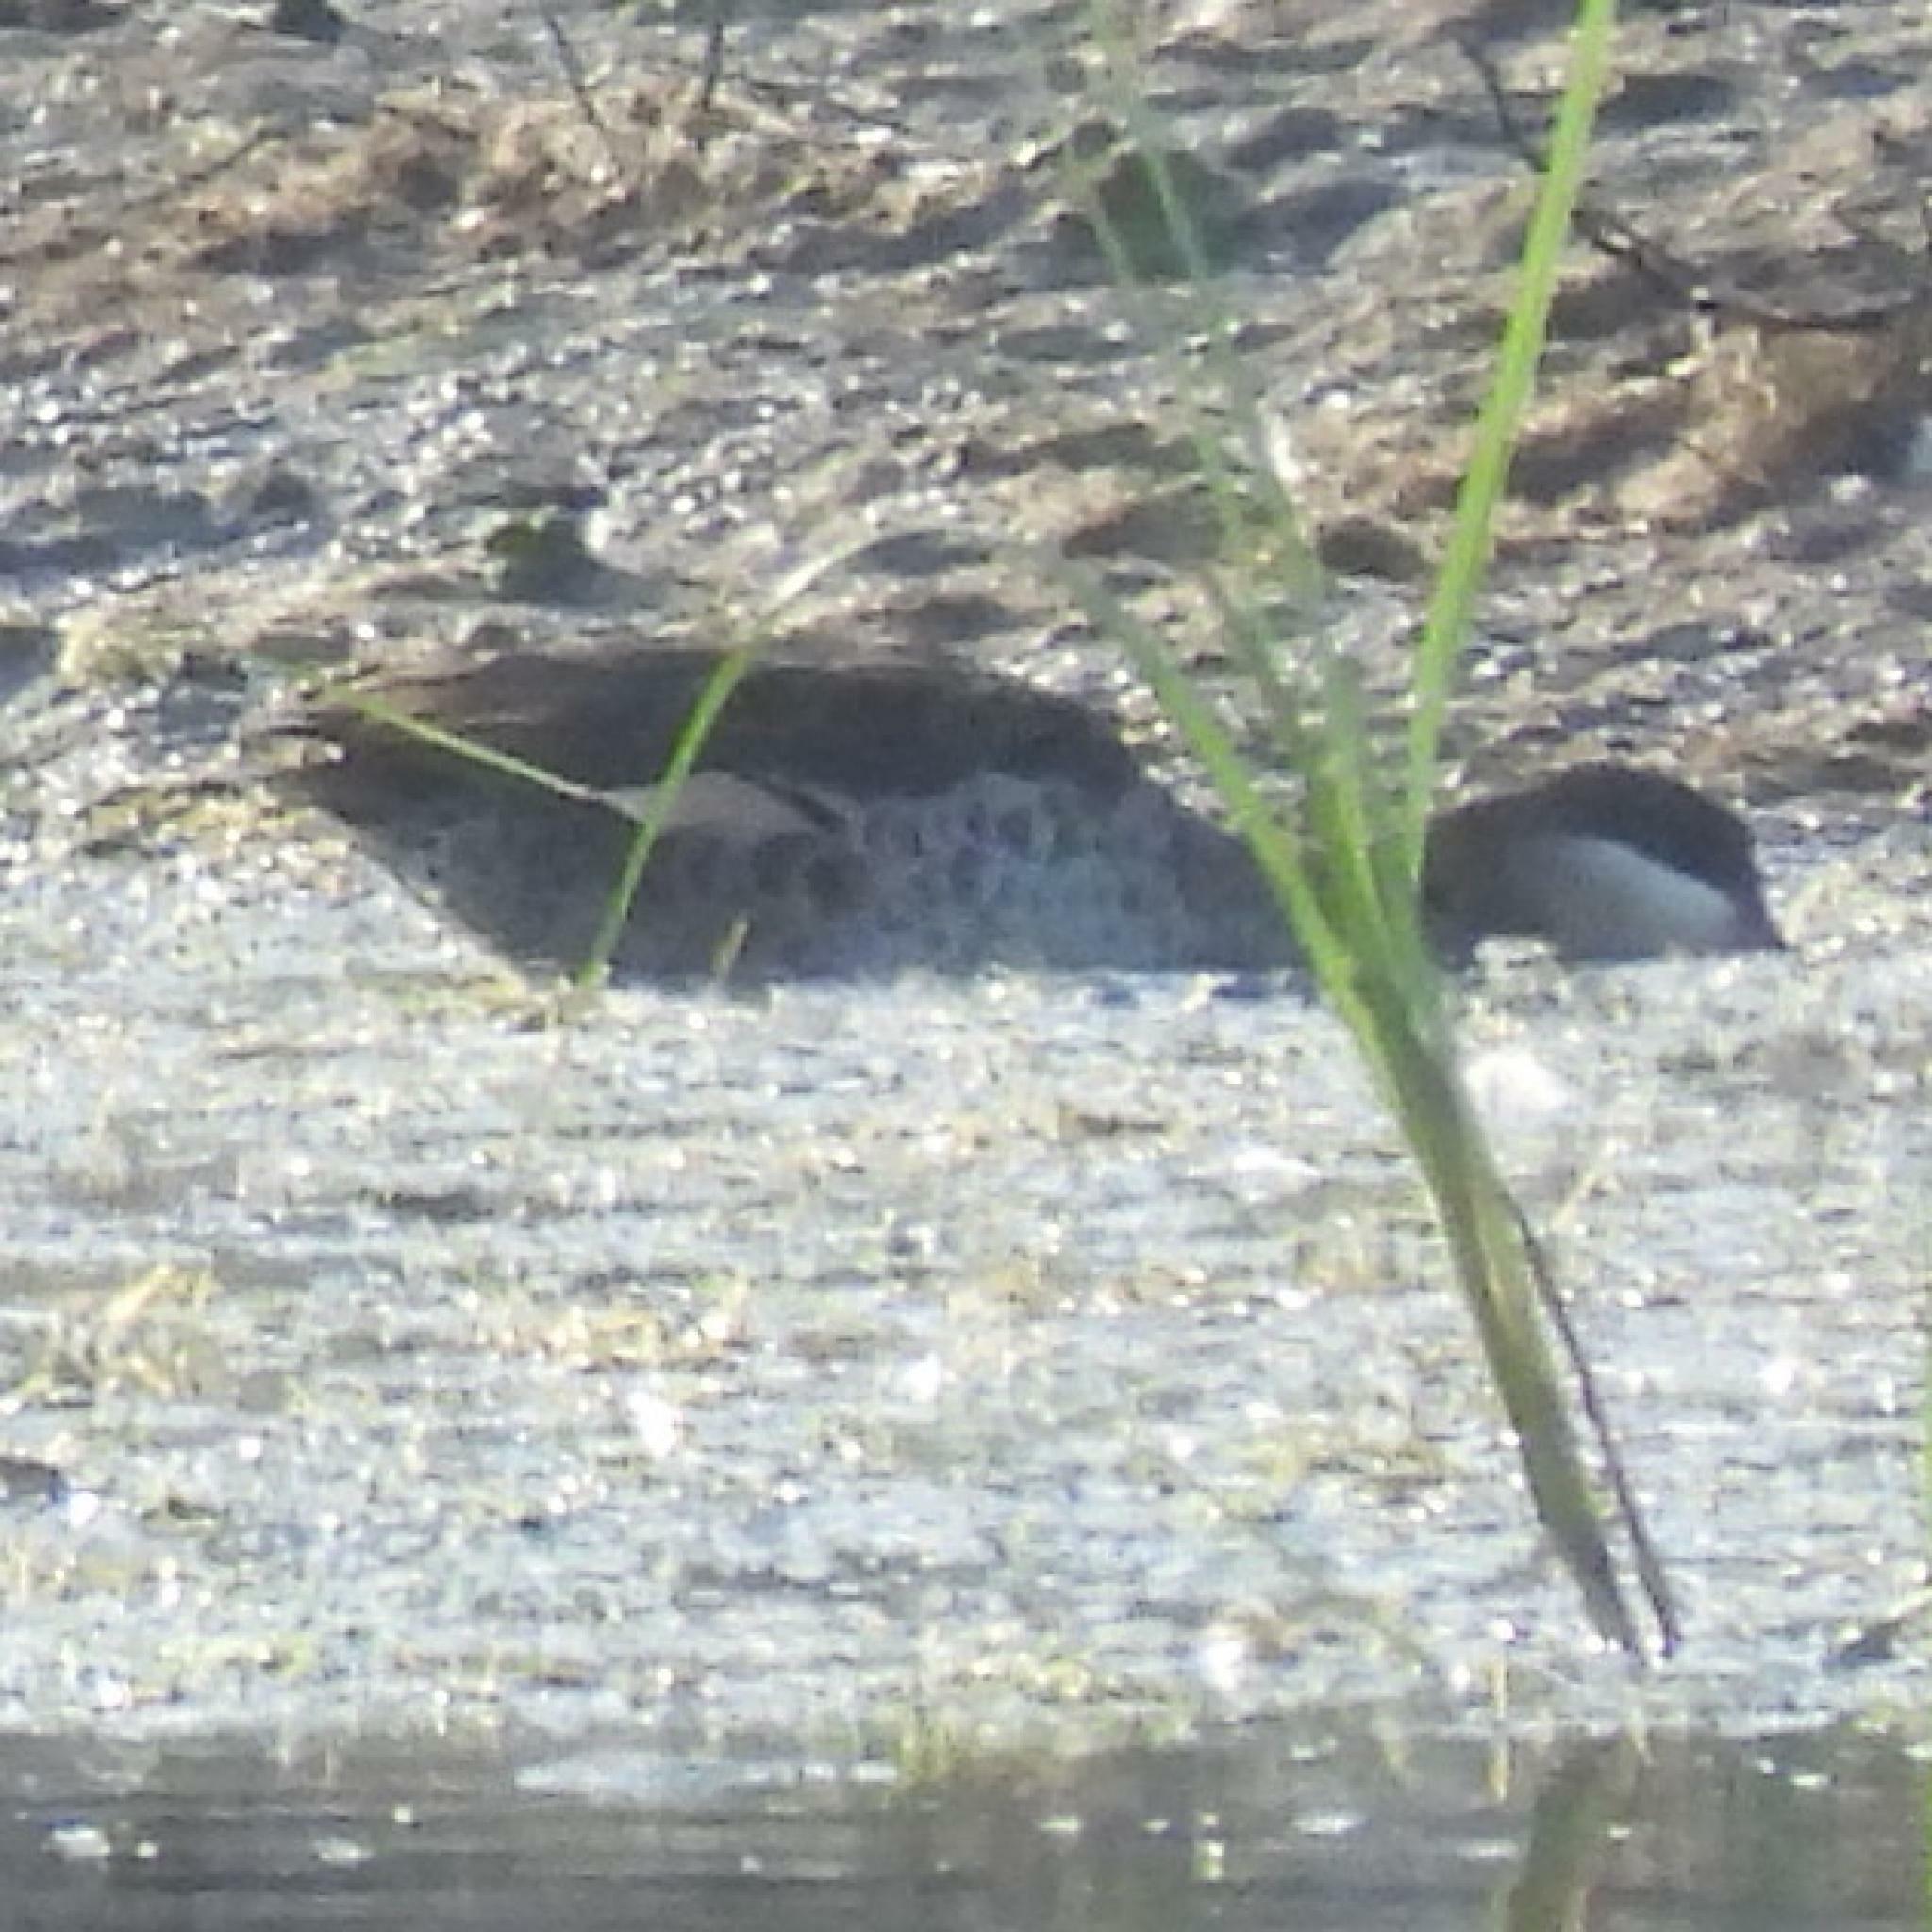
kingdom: Animalia
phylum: Chordata
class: Aves
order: Anseriformes
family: Anatidae
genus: Anas
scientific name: Anas erythrorhyncha
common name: Red-billed teal
